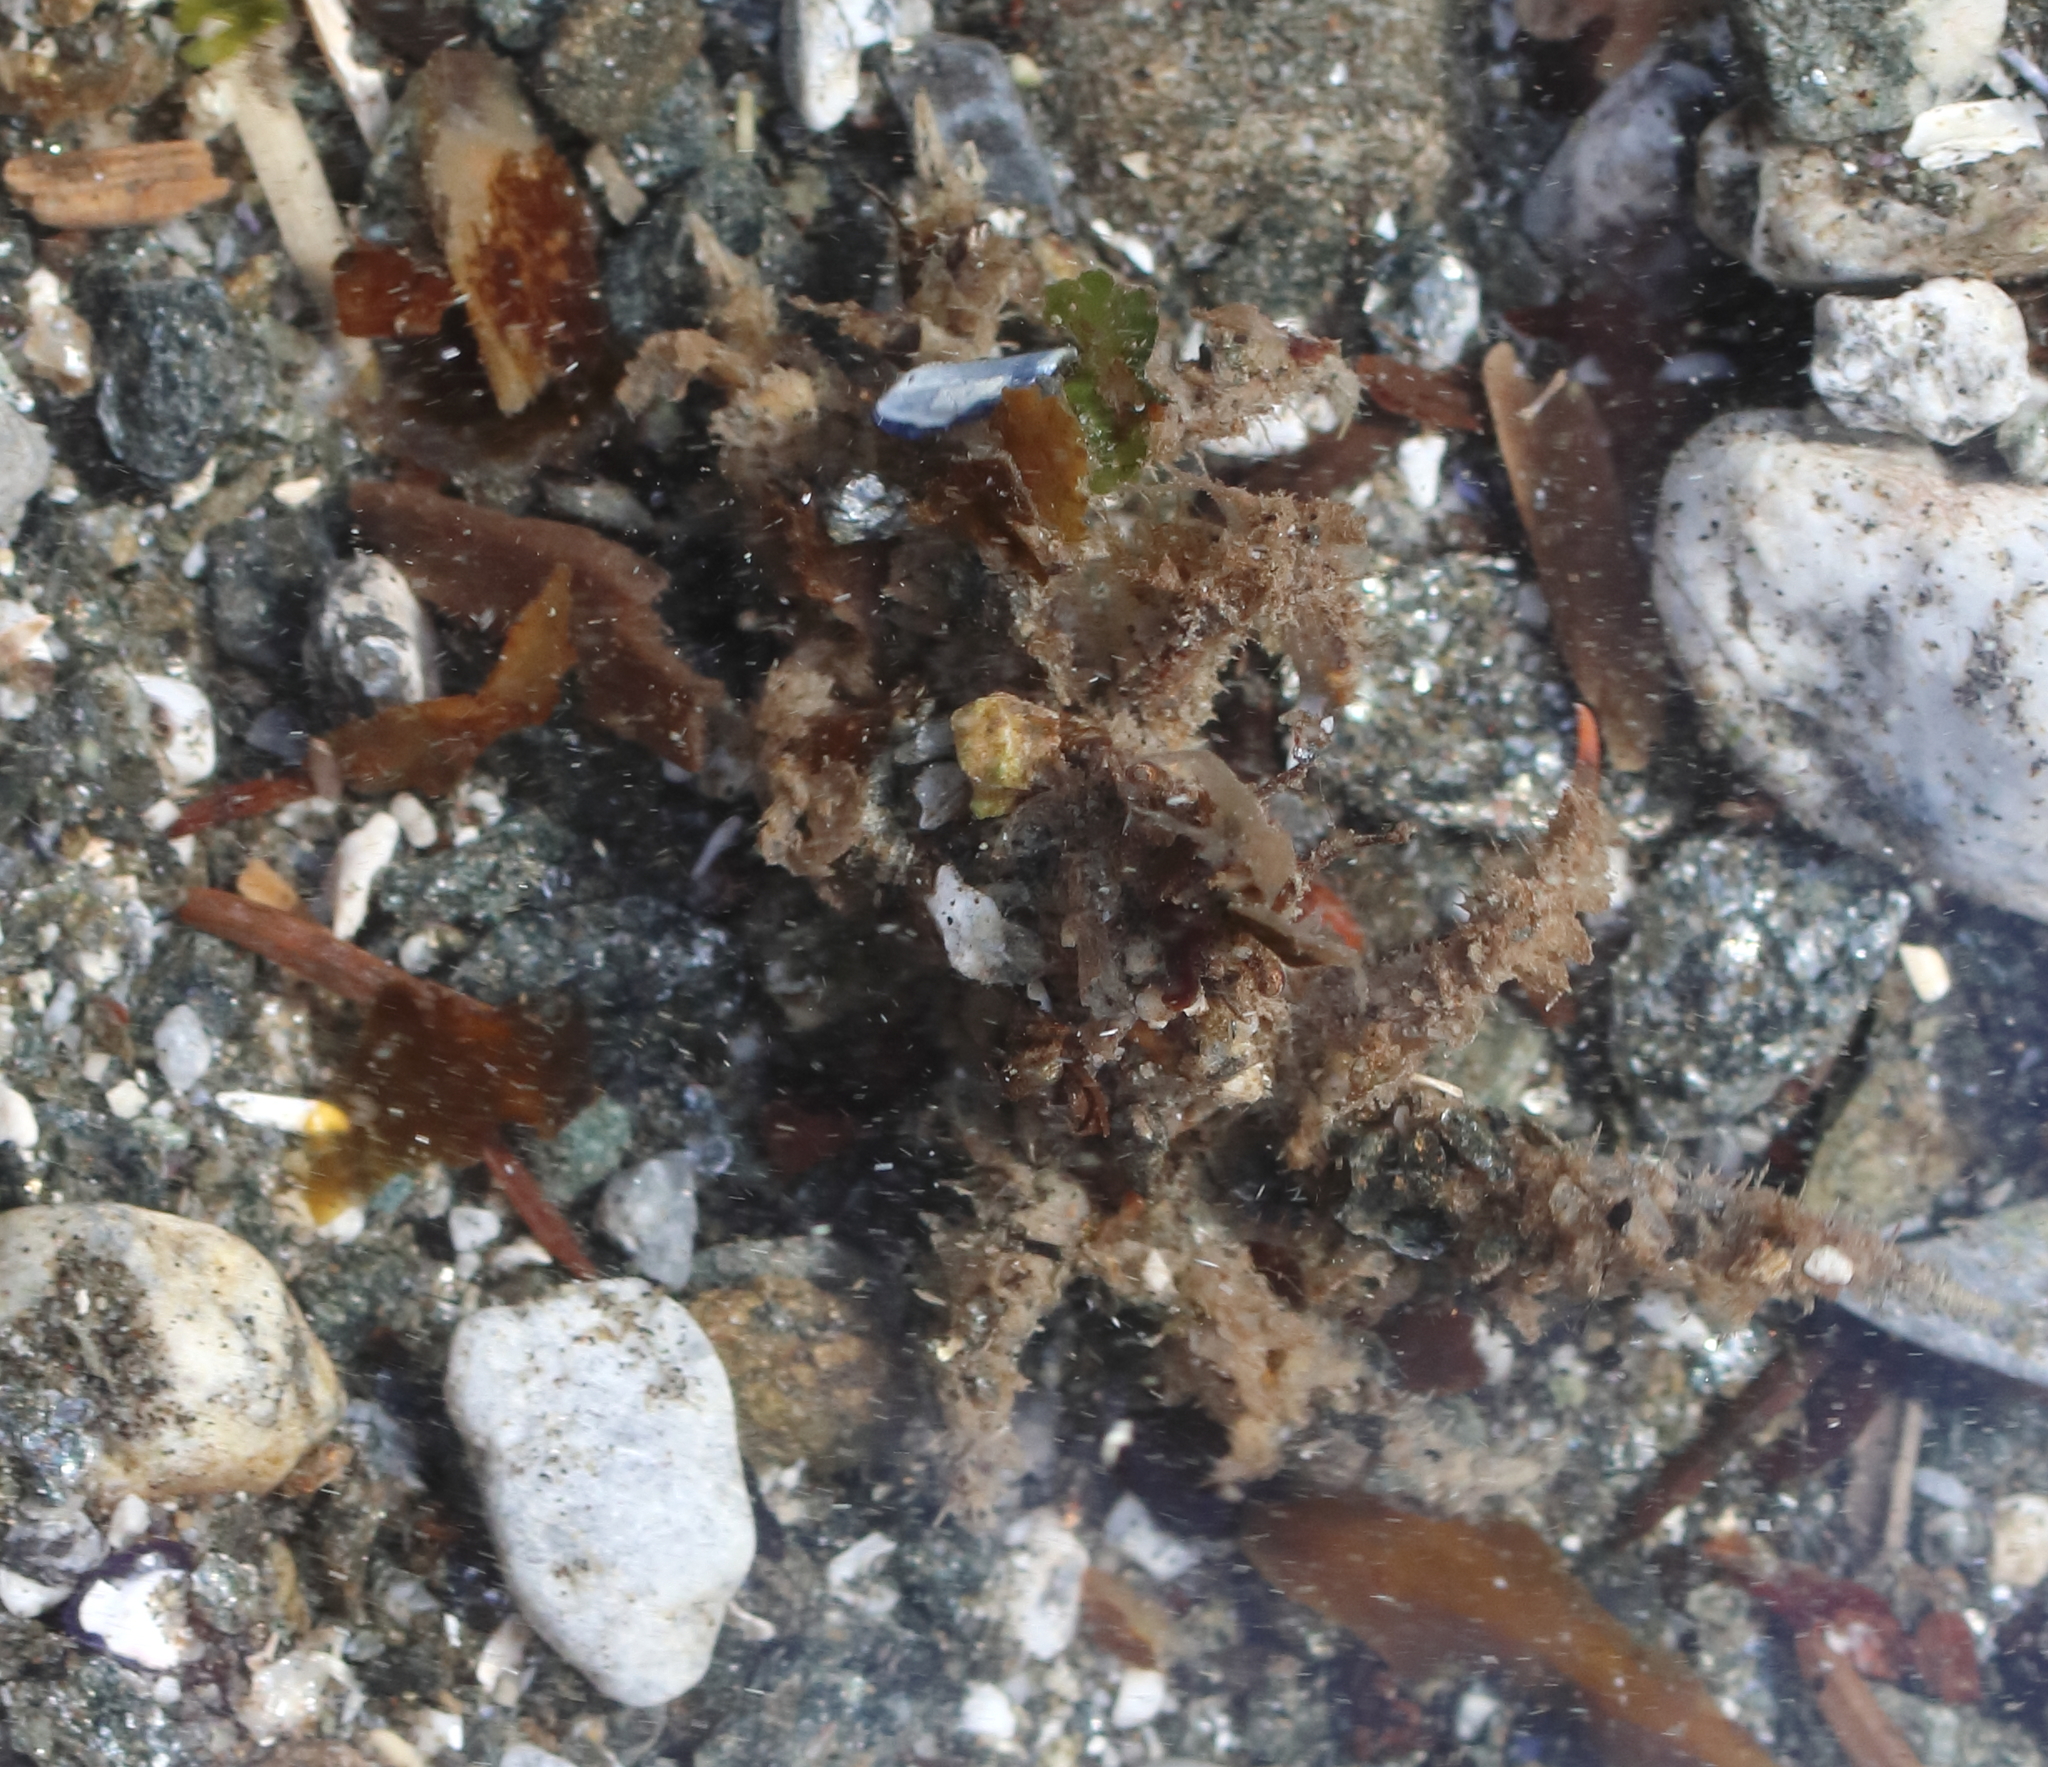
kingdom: Animalia
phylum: Arthropoda
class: Malacostraca
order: Decapoda
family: Oregoniidae
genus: Oregonia
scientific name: Oregonia gracilis
